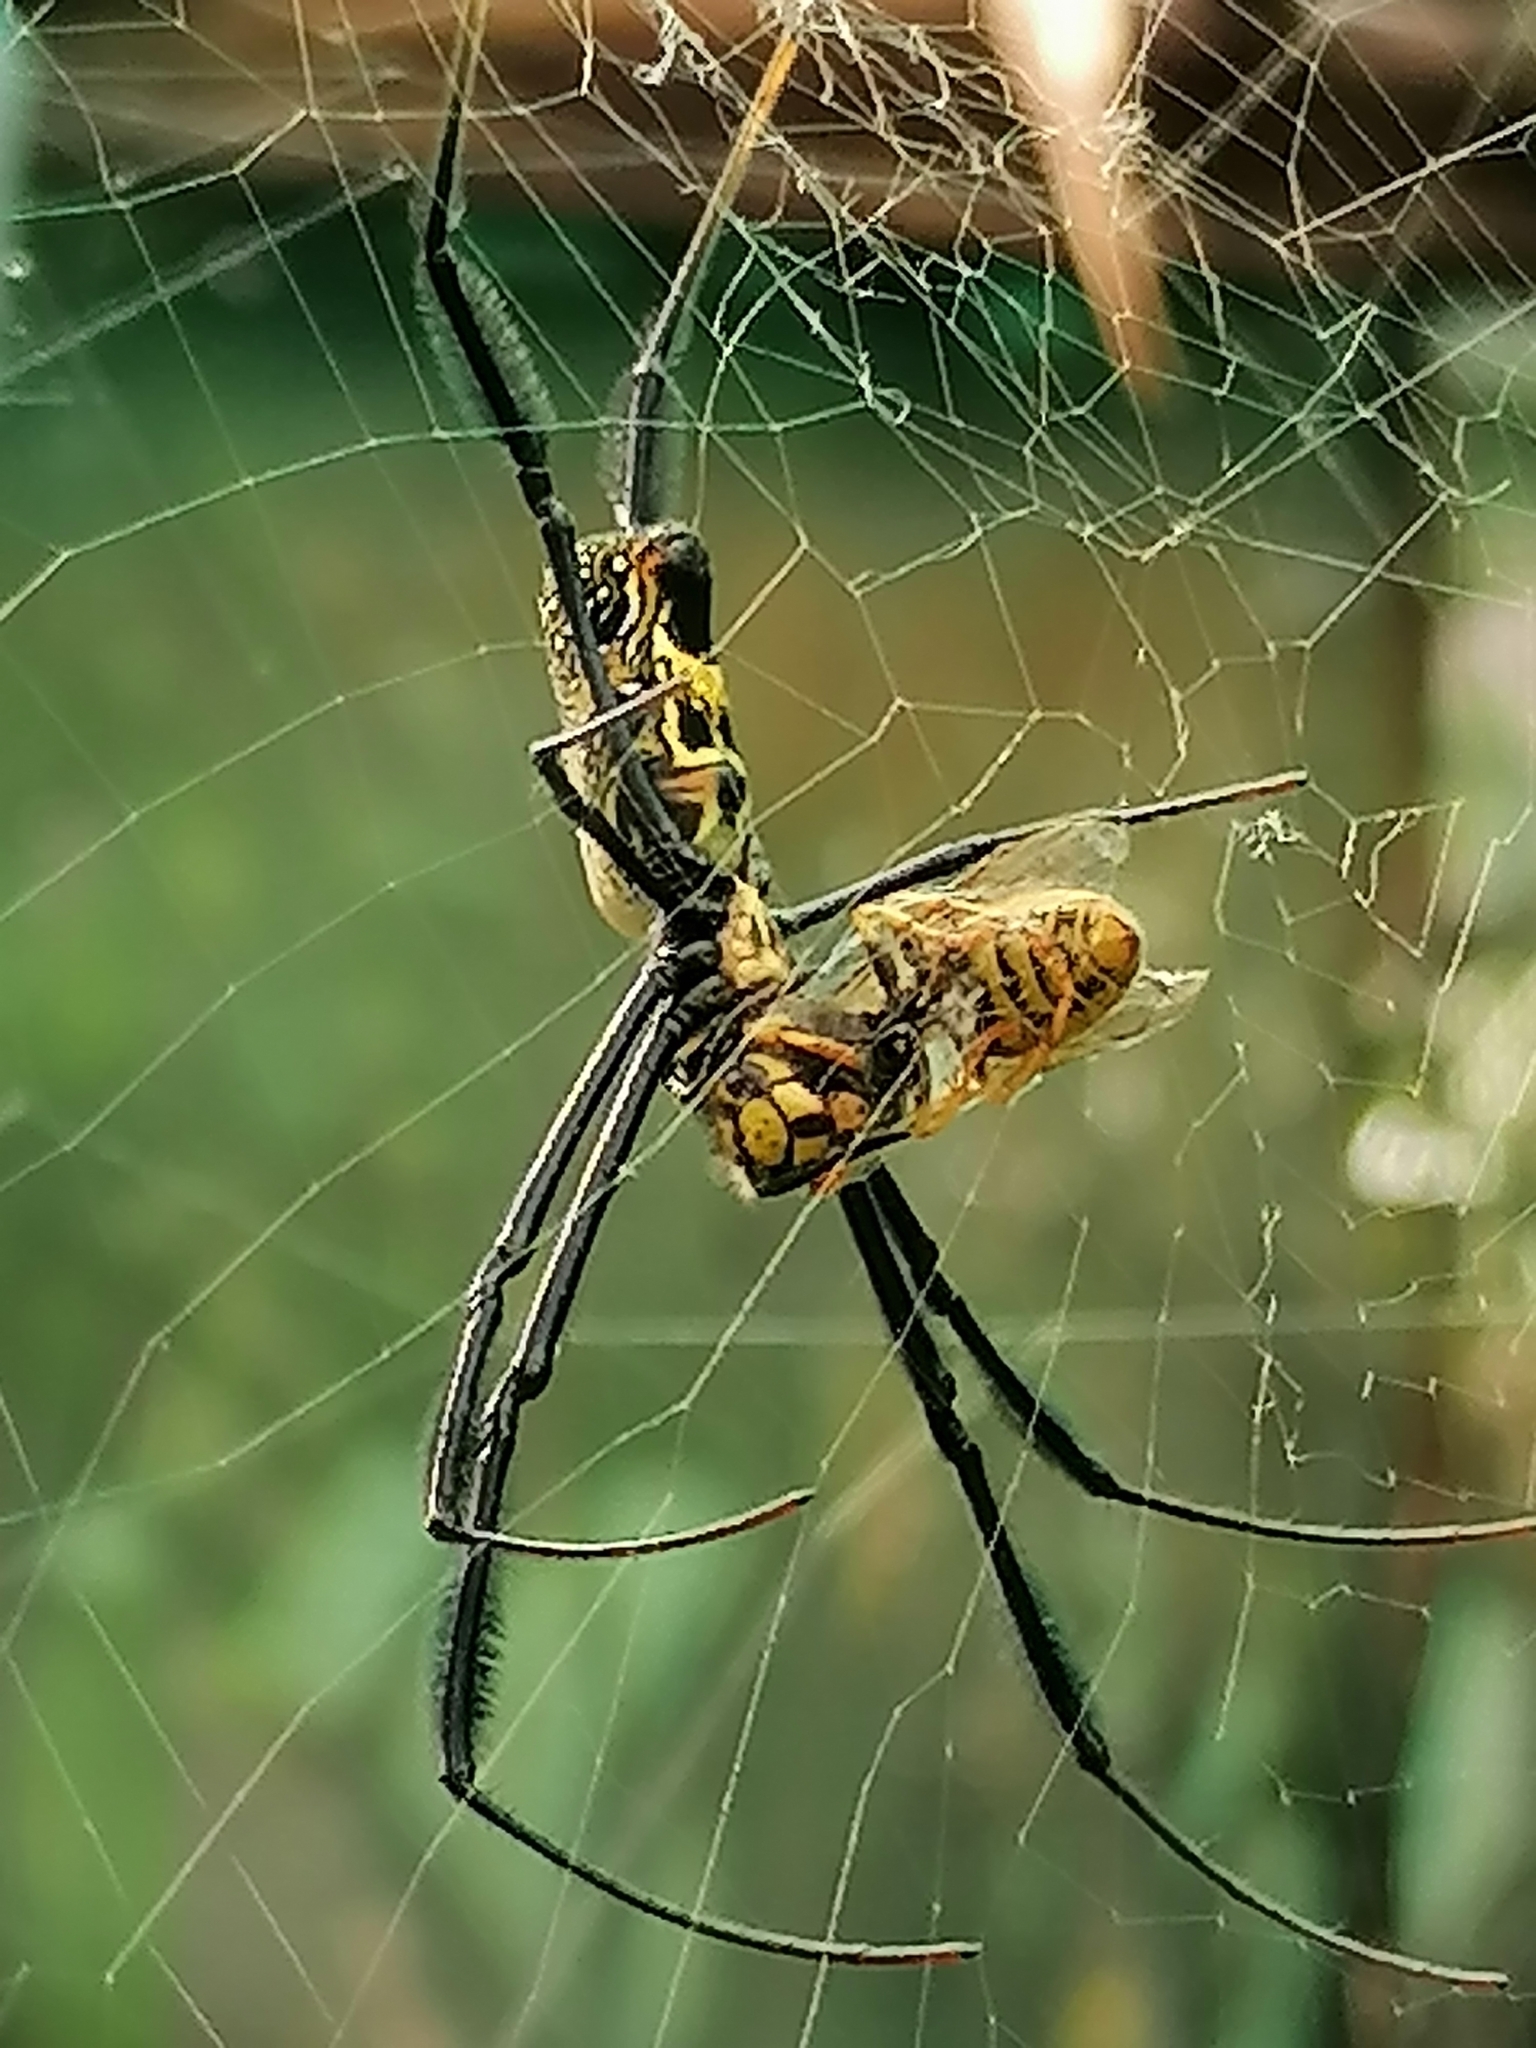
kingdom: Animalia
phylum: Arthropoda
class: Arachnida
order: Araneae
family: Araneidae
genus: Trichonephila
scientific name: Trichonephila fenestrata
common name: Hairy golden orb weaver
